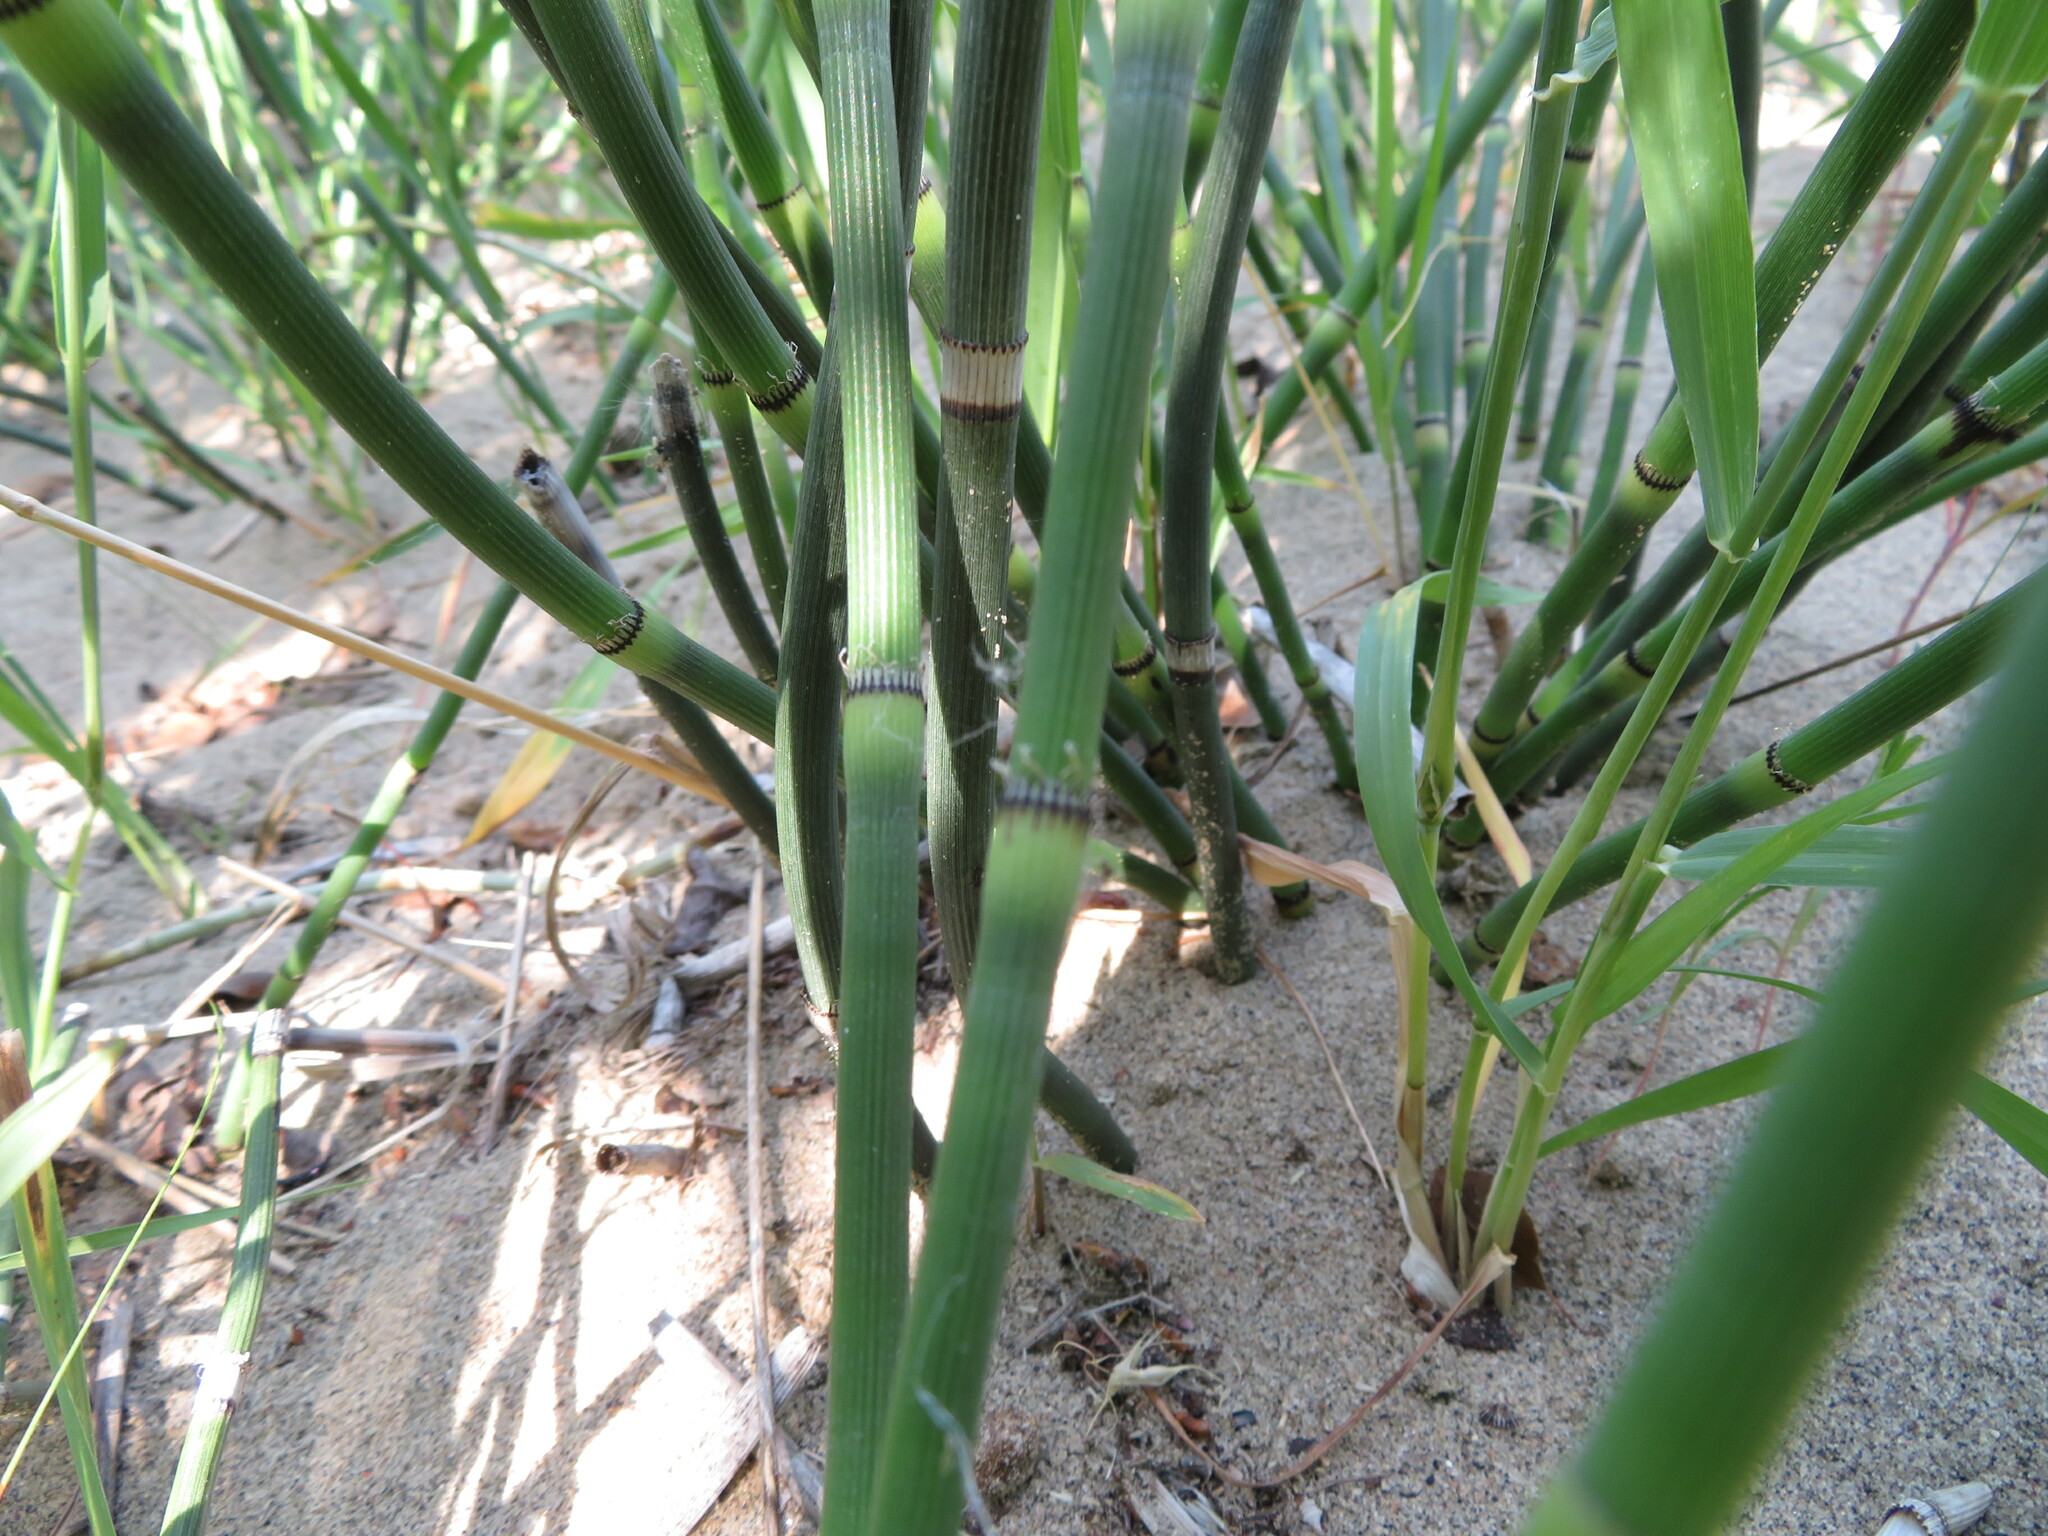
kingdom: Plantae
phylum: Tracheophyta
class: Polypodiopsida
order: Equisetales
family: Equisetaceae
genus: Equisetum
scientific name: Equisetum hyemale
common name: Rough horsetail
